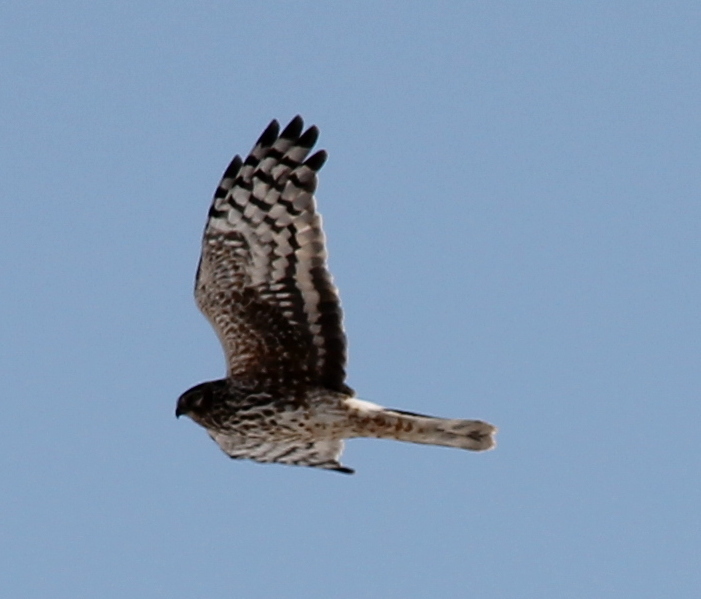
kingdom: Animalia
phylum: Chordata
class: Aves
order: Accipitriformes
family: Accipitridae
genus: Circus
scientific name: Circus cyaneus
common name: Hen harrier
